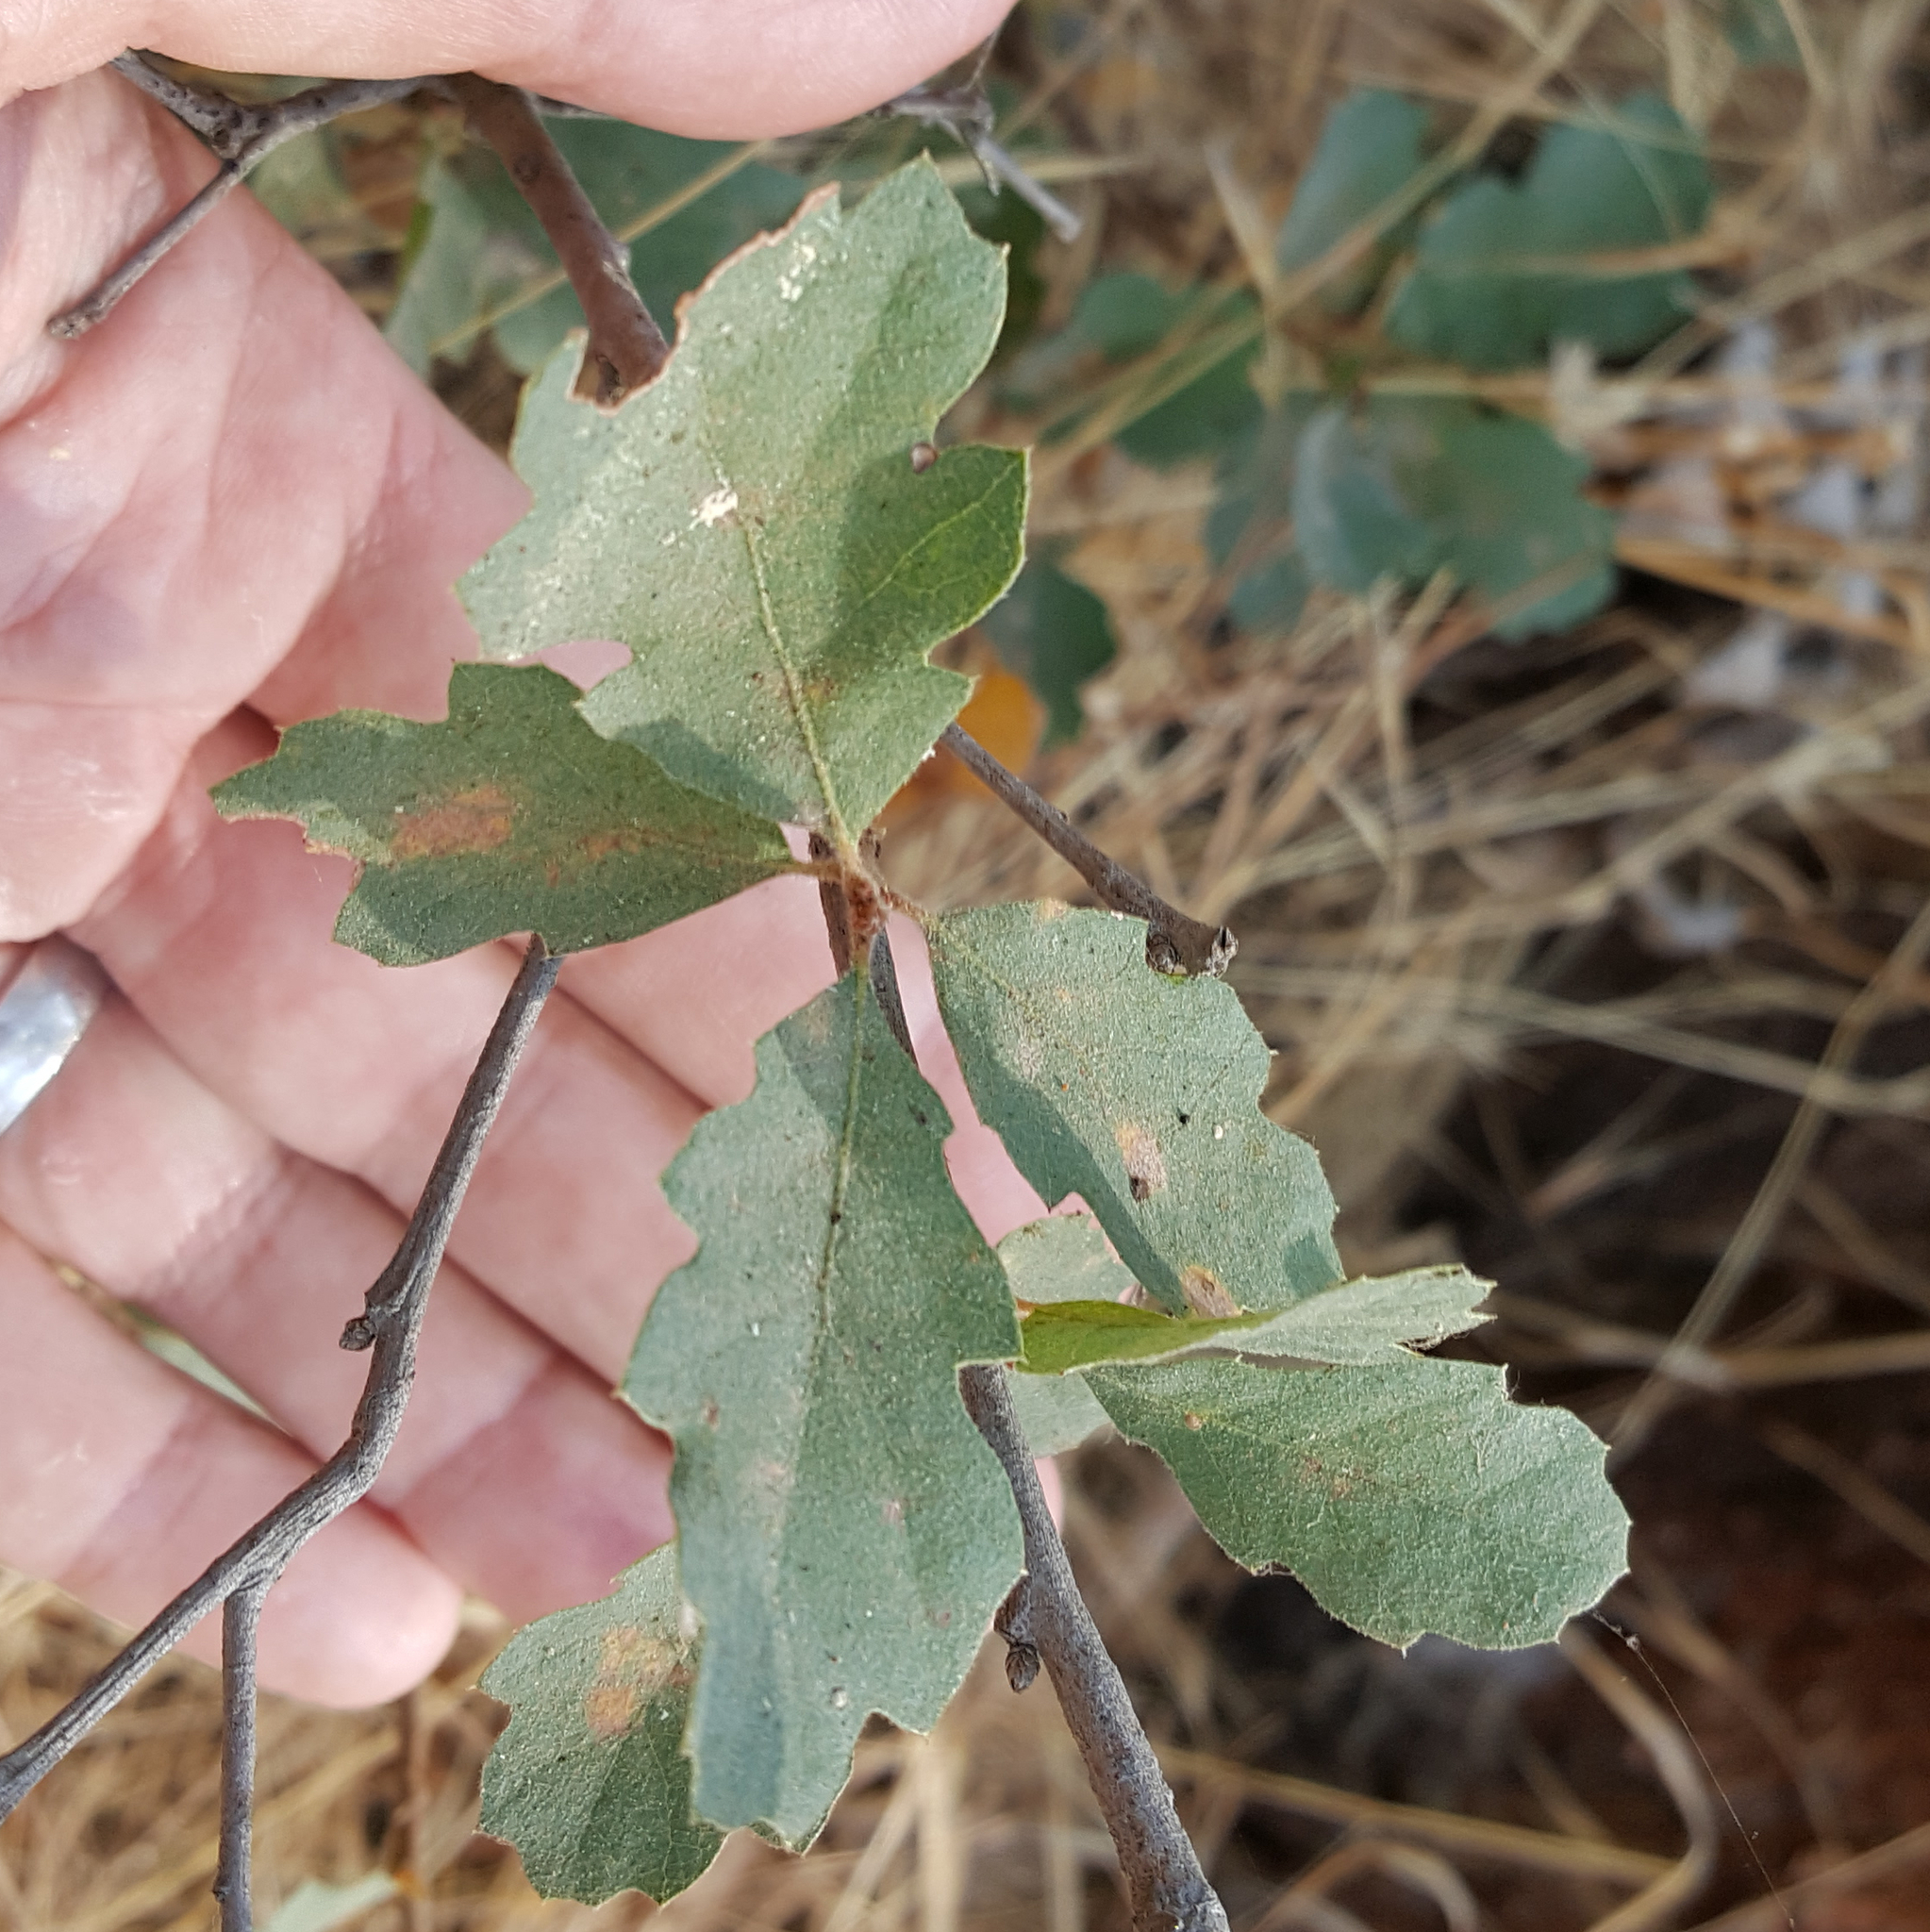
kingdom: Plantae
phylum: Tracheophyta
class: Magnoliopsida
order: Fagales
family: Fagaceae
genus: Quercus
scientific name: Quercus douglasii
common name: Blue oak
